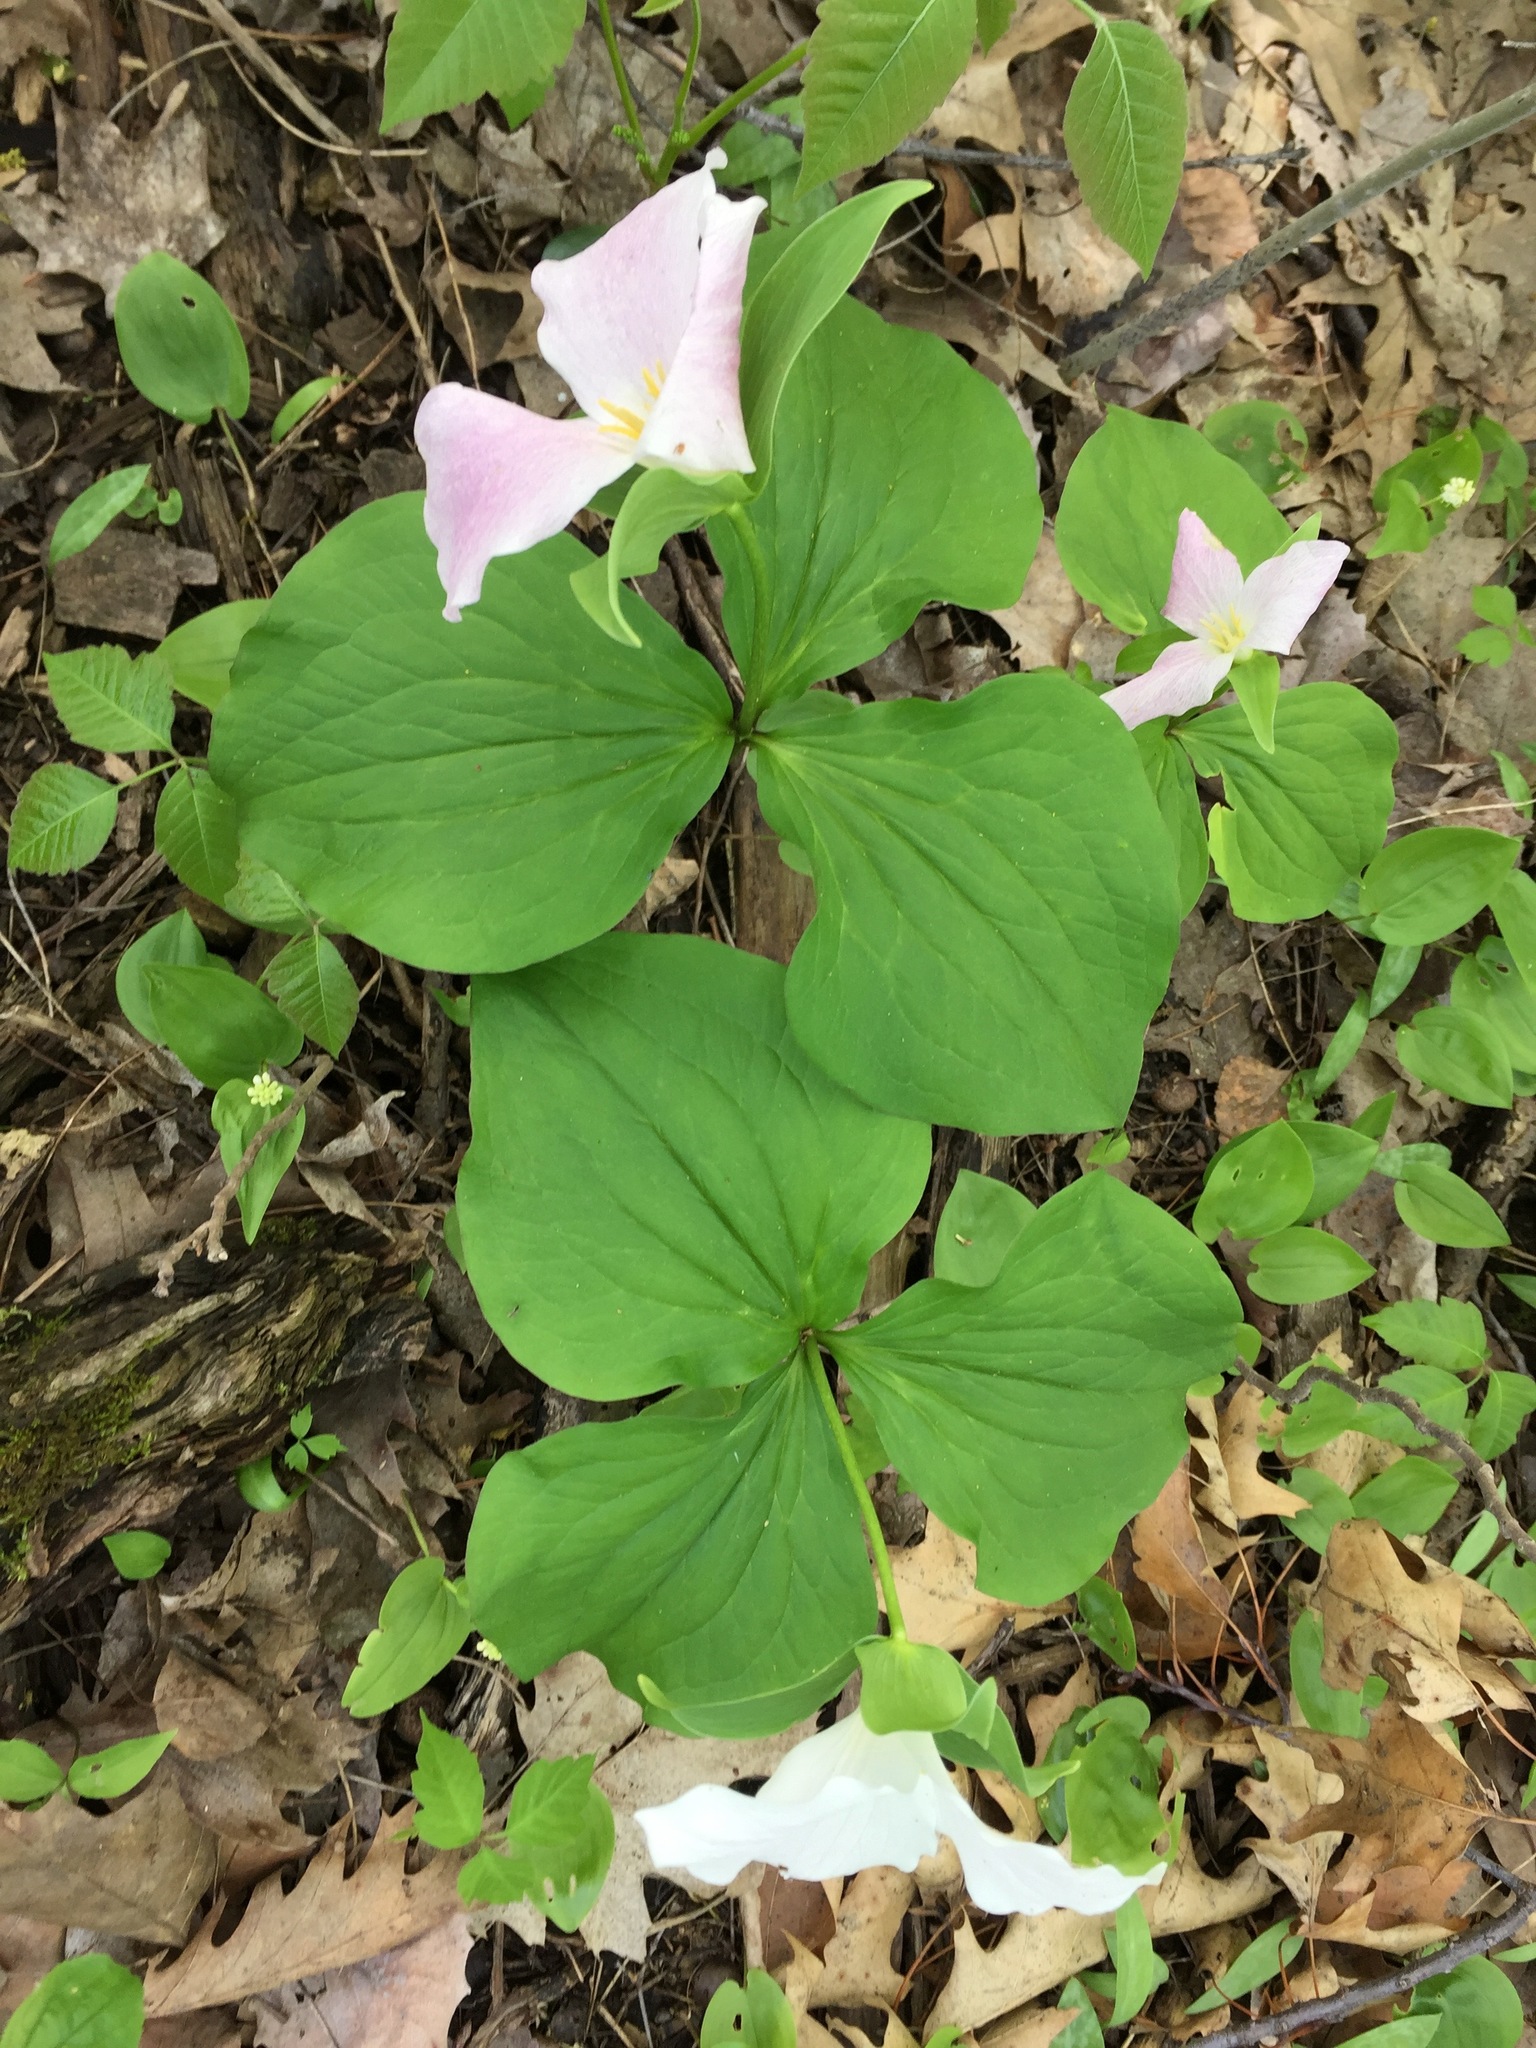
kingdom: Plantae
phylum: Tracheophyta
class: Liliopsida
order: Liliales
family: Melanthiaceae
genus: Trillium
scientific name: Trillium grandiflorum
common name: Great white trillium
